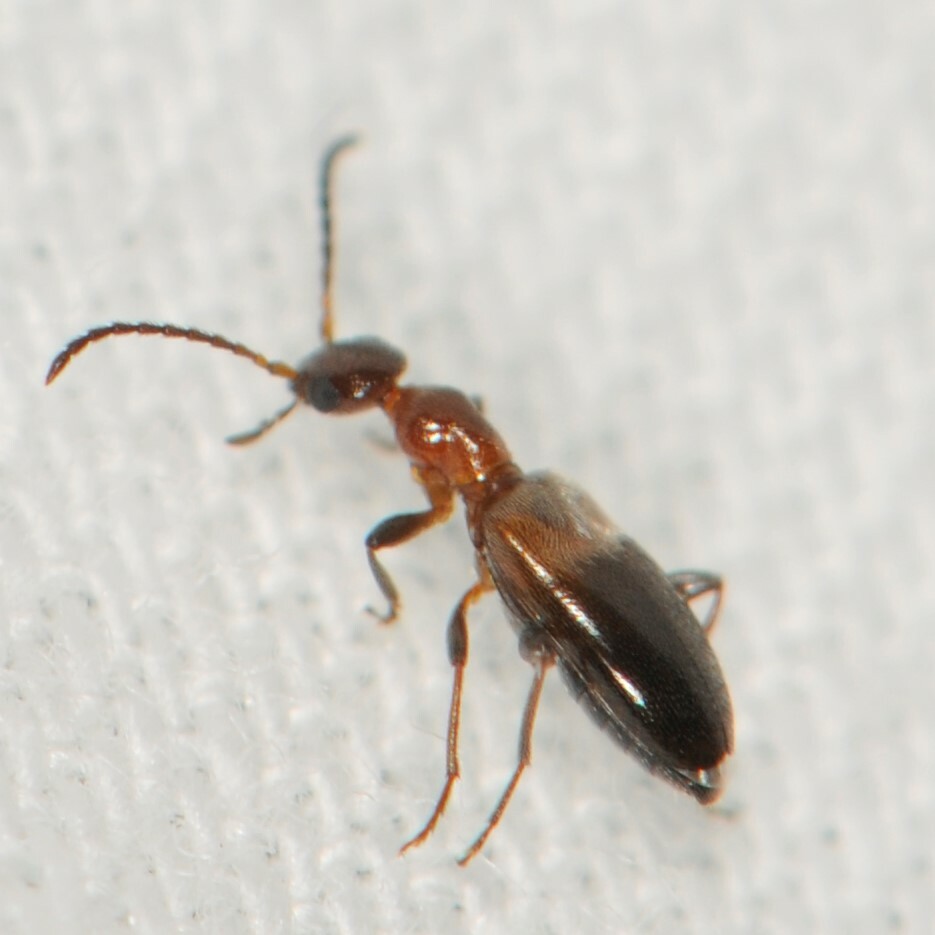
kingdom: Animalia
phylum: Arthropoda
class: Insecta
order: Coleoptera
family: Anthicidae
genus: Ischyropalpus
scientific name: Ischyropalpus
